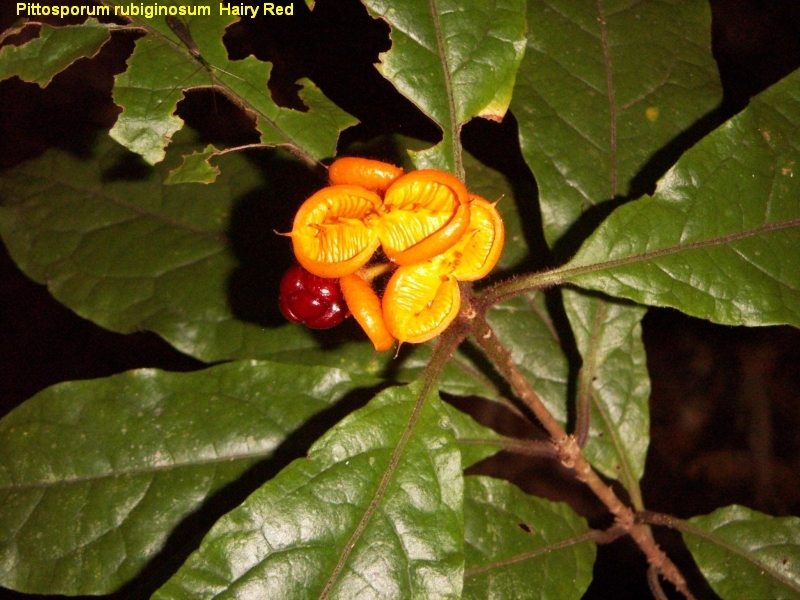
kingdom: Plantae
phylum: Tracheophyta
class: Magnoliopsida
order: Apiales
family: Pittosporaceae
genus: Pittosporum
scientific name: Pittosporum rubiginosum
